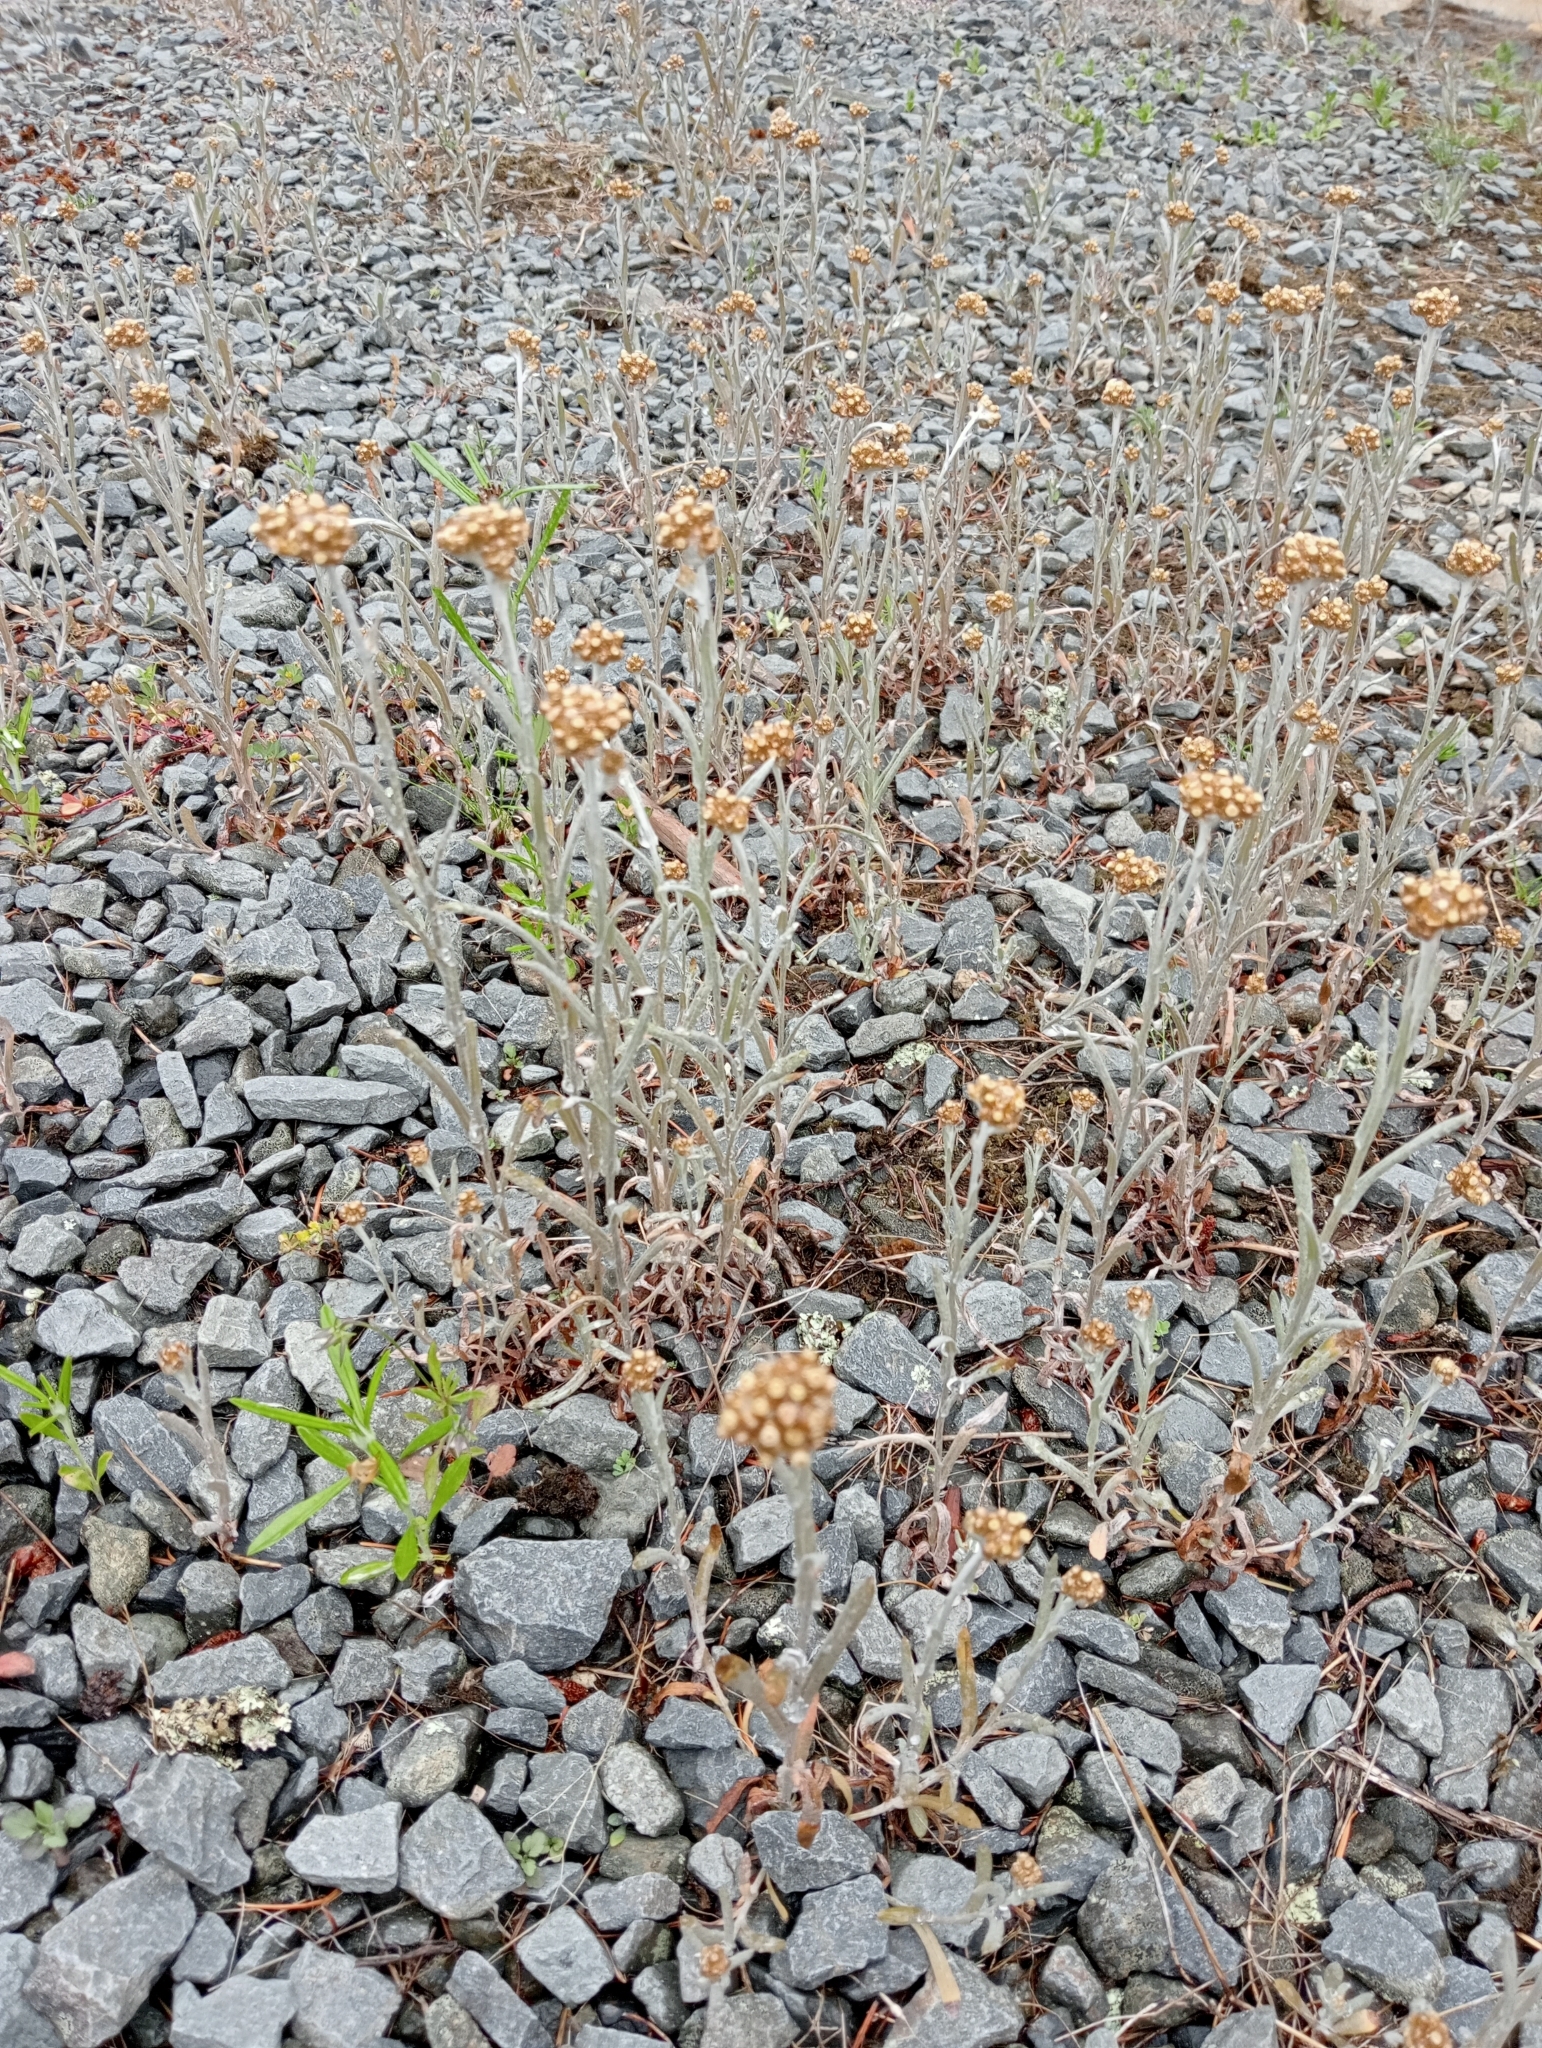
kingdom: Plantae
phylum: Tracheophyta
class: Magnoliopsida
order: Asterales
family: Asteraceae
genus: Helichrysum
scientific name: Helichrysum luteoalbum
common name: Daisy
